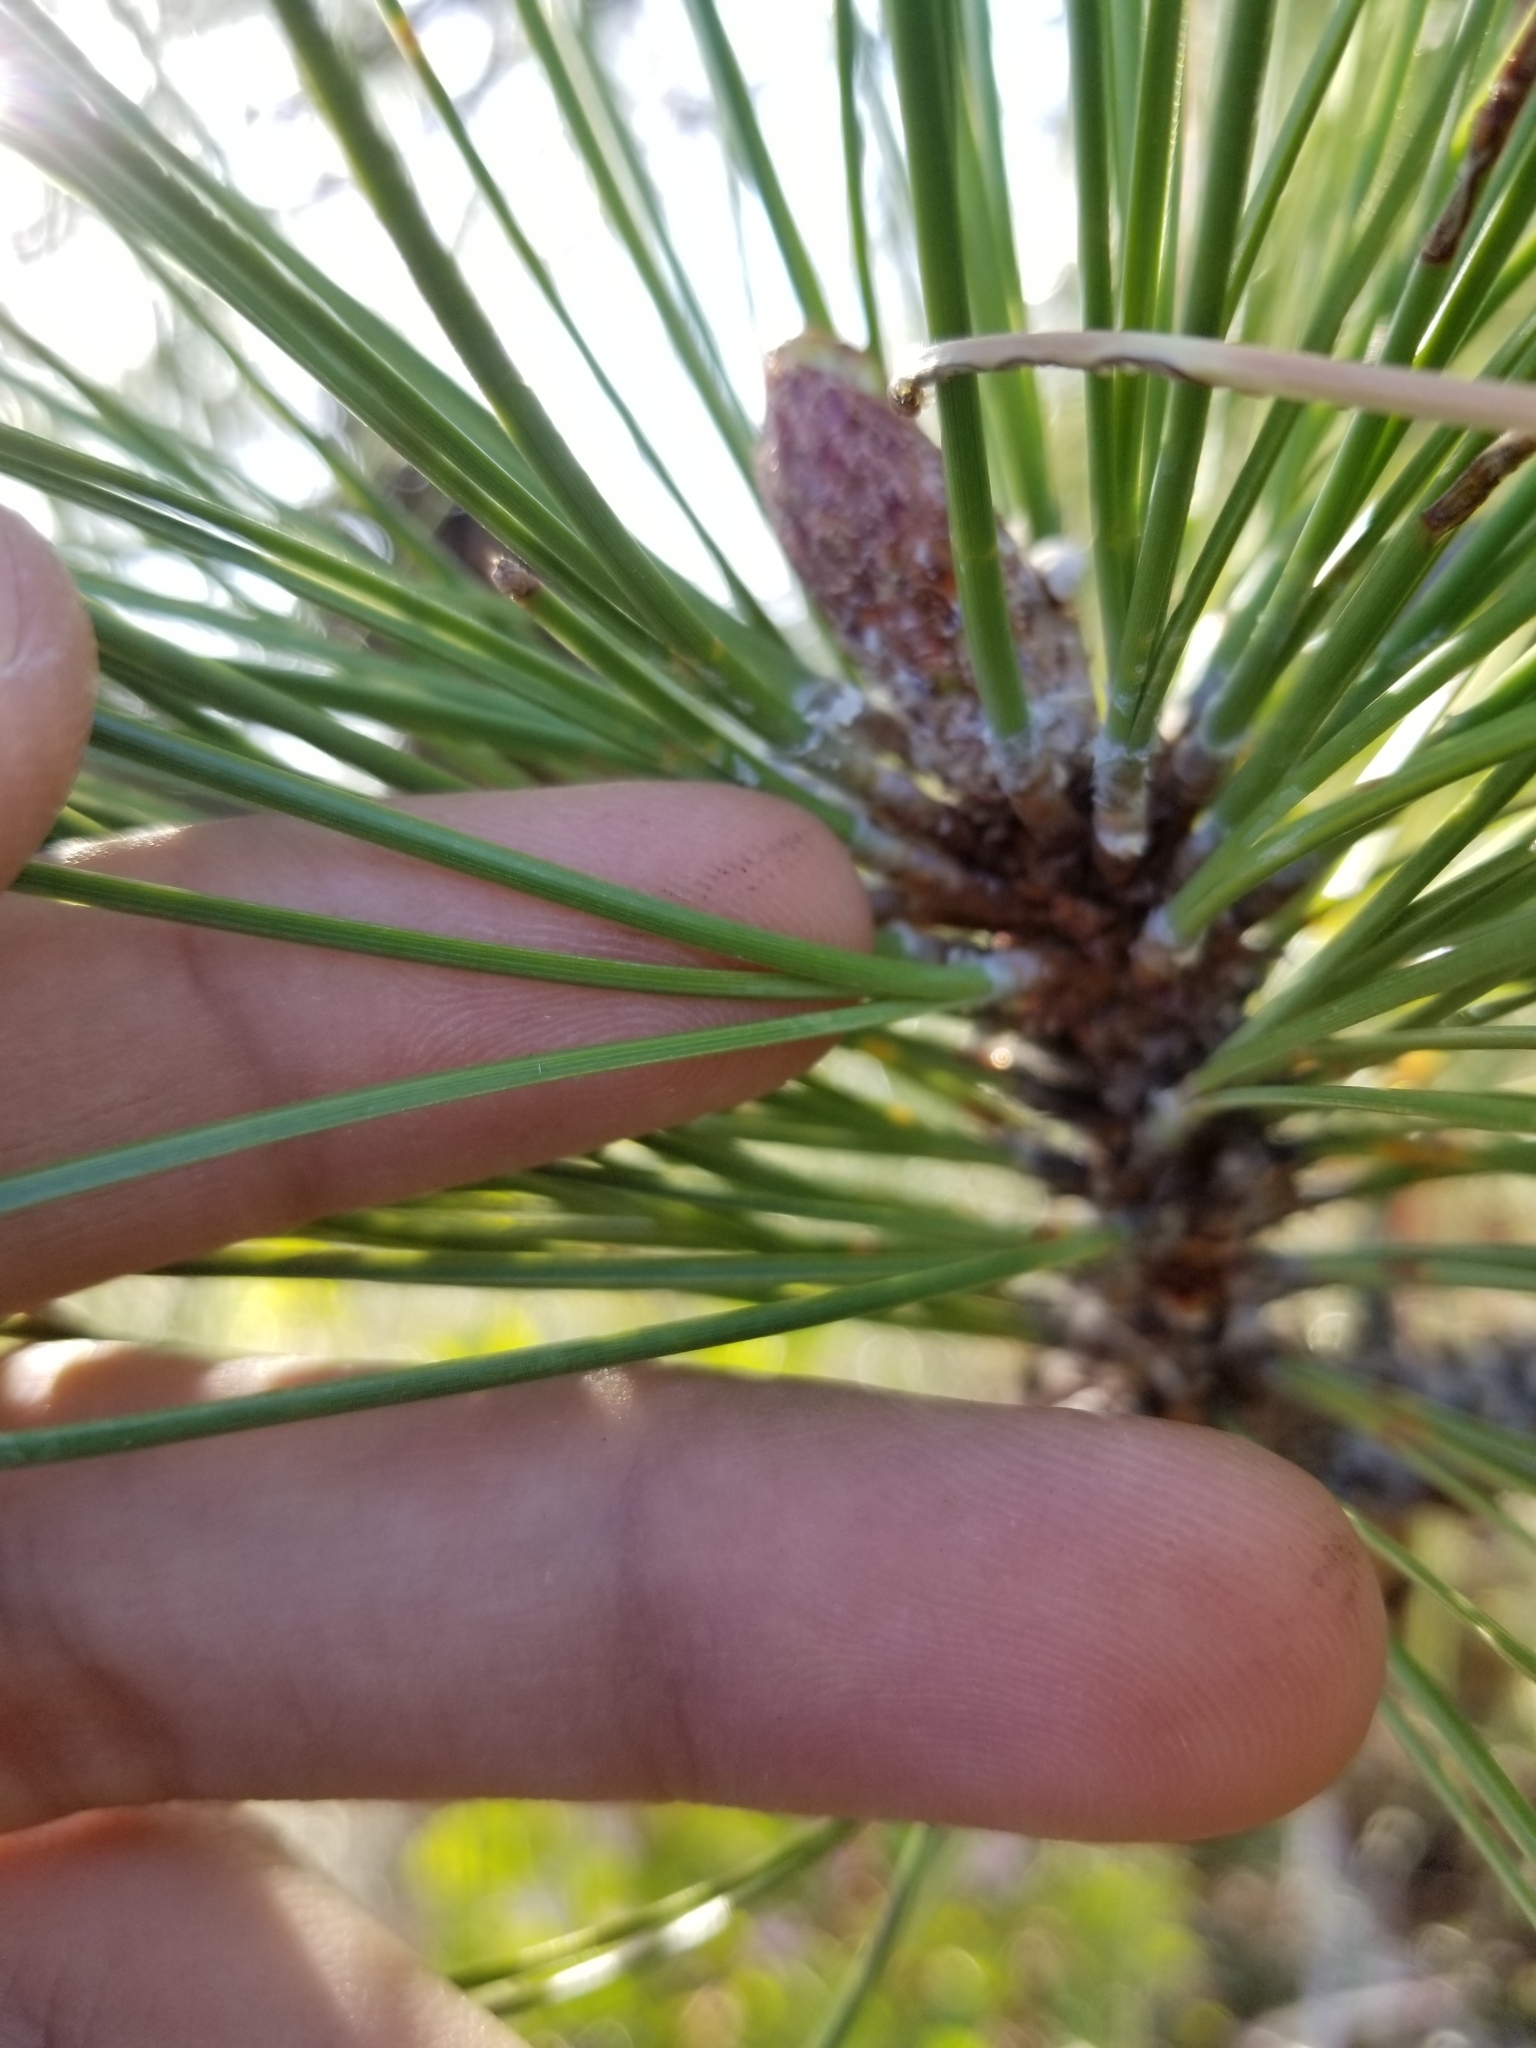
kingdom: Plantae
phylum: Tracheophyta
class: Pinopsida
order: Pinales
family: Pinaceae
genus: Pinus
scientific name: Pinus ponderosa
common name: Western yellow-pine
